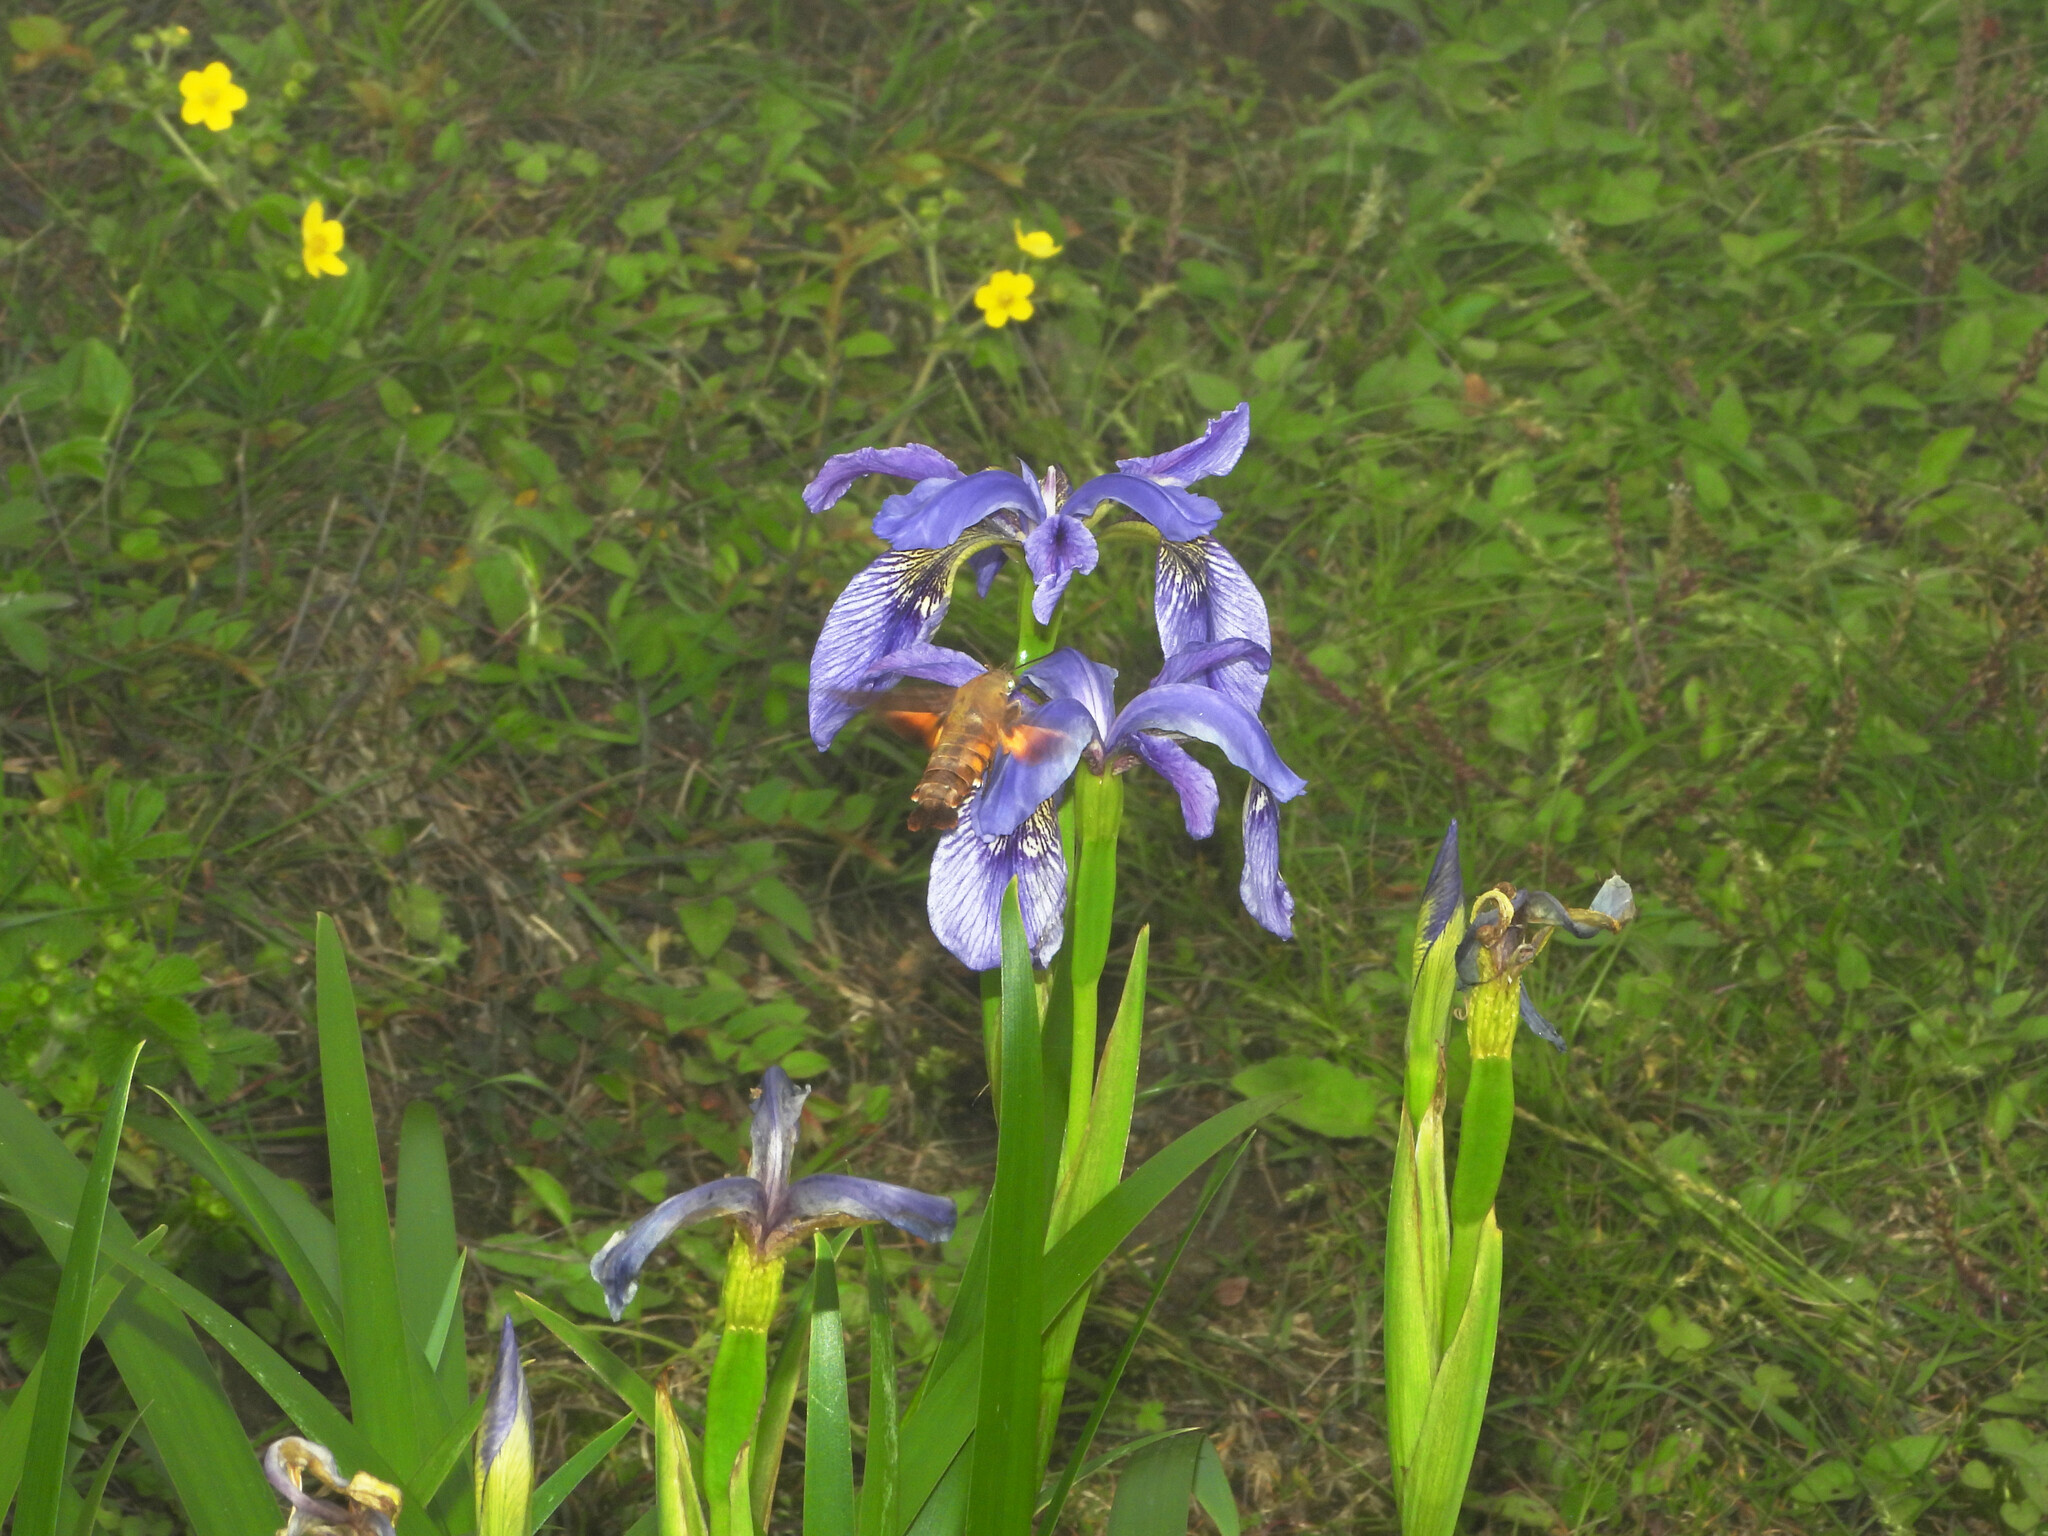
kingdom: Animalia
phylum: Arthropoda
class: Insecta
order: Lepidoptera
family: Sphingidae
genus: Macroglossum
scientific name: Macroglossum pyrrhosticta
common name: Hummingbird hawk moth
